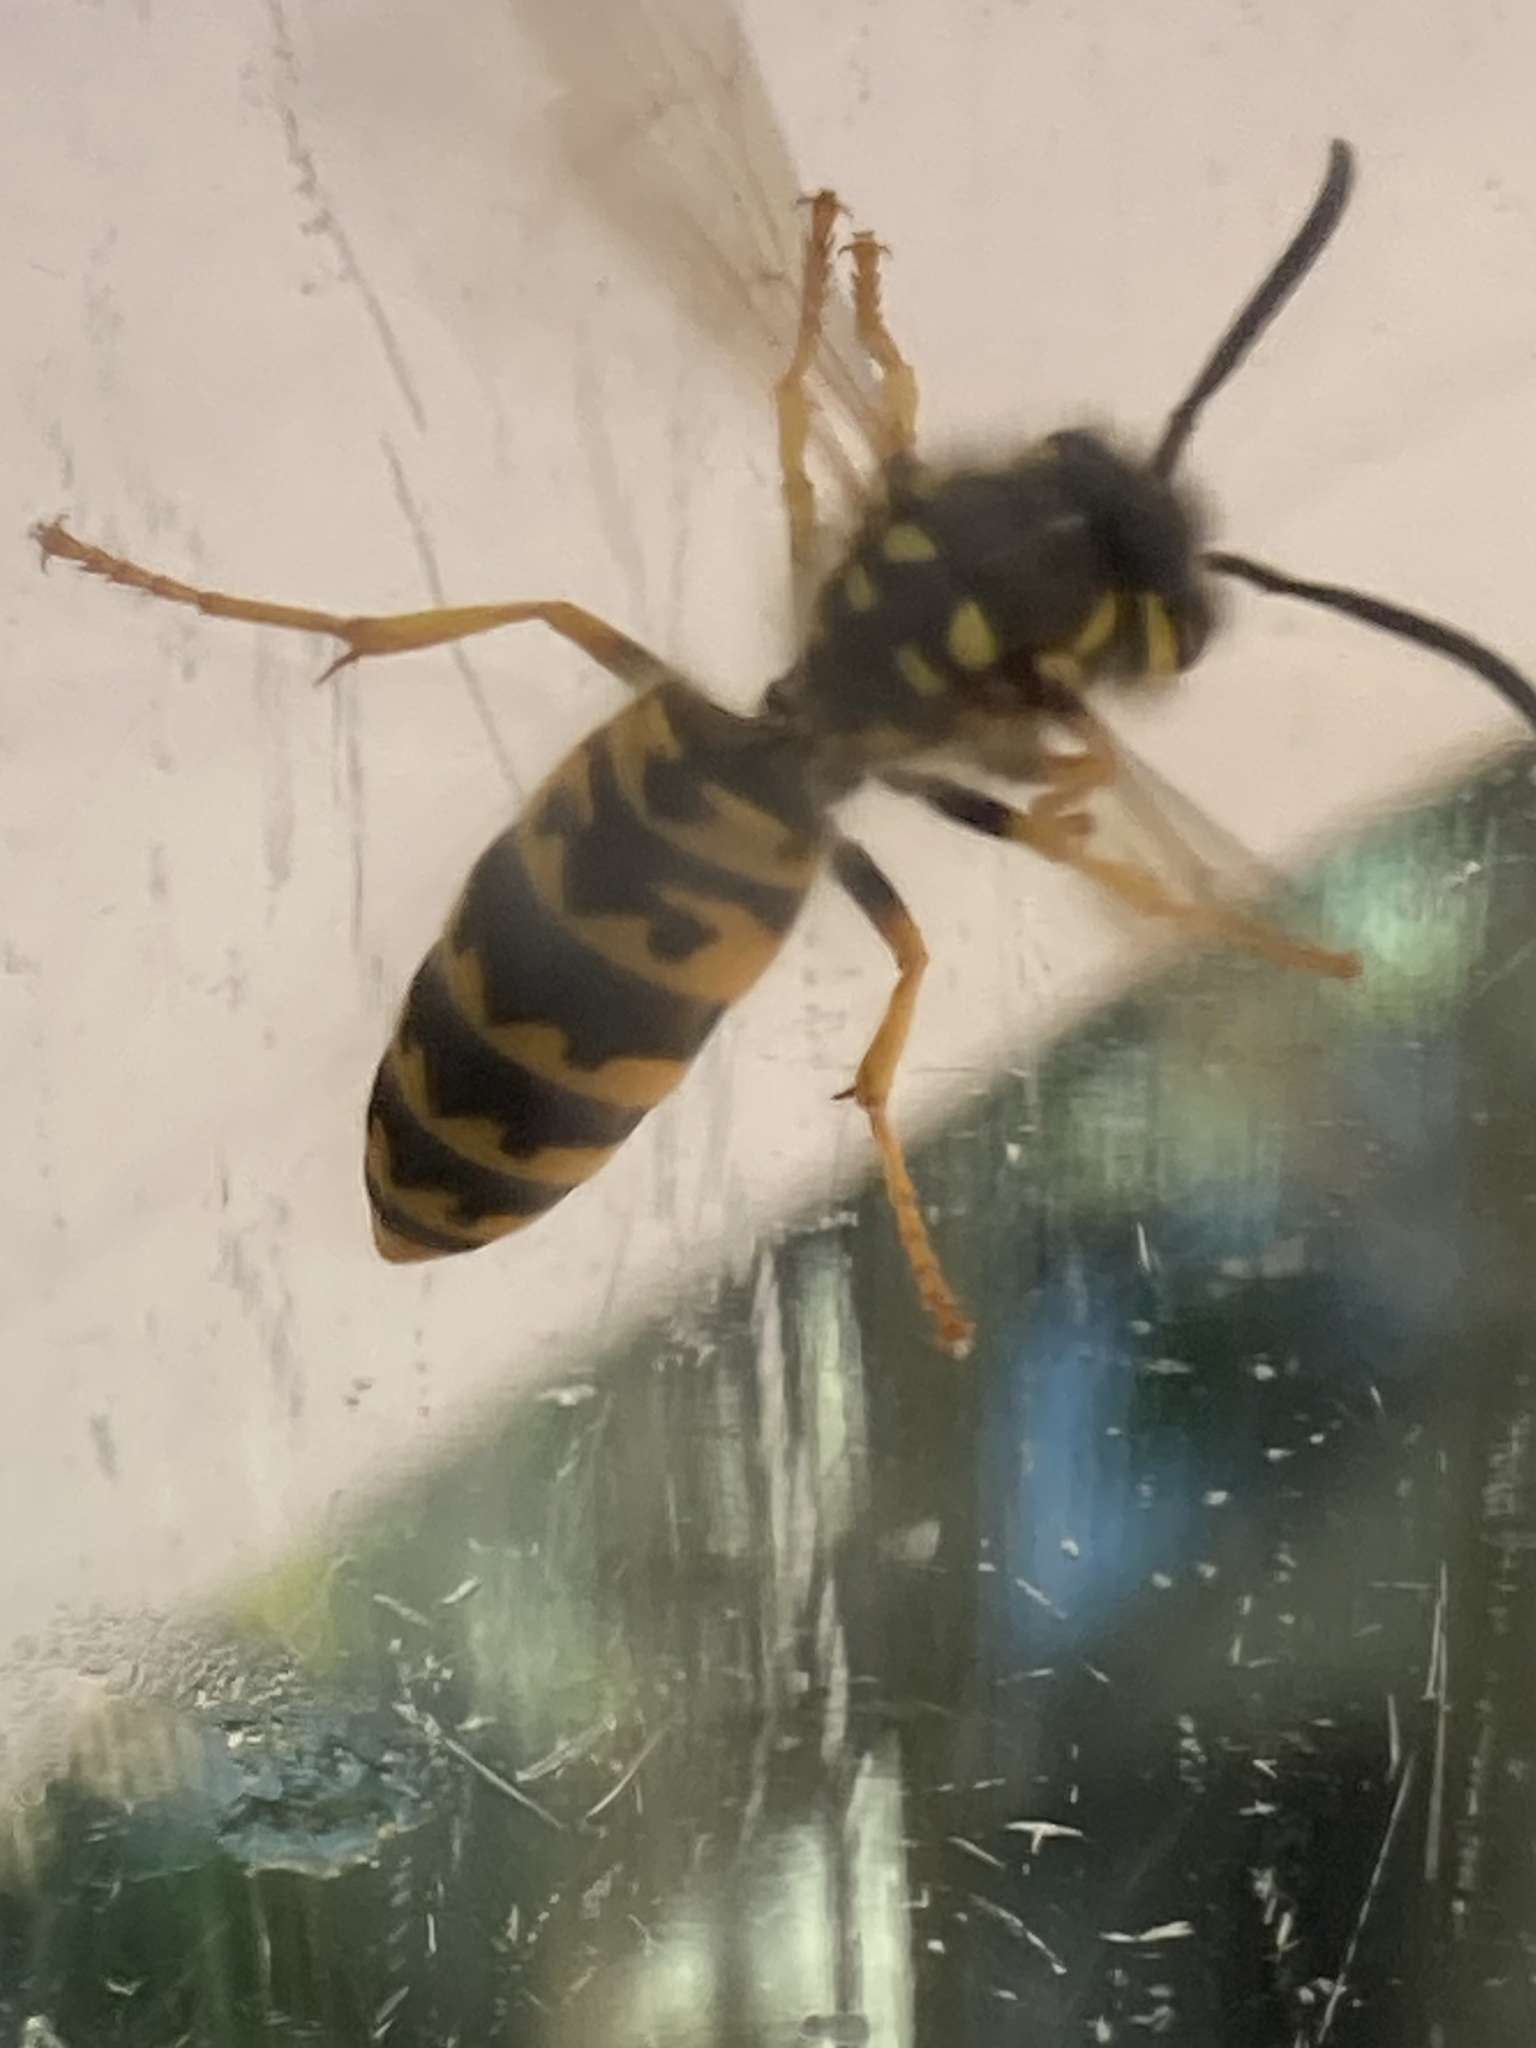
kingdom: Animalia
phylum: Arthropoda
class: Insecta
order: Hymenoptera
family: Vespidae
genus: Vespula
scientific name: Vespula germanica
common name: German wasp
